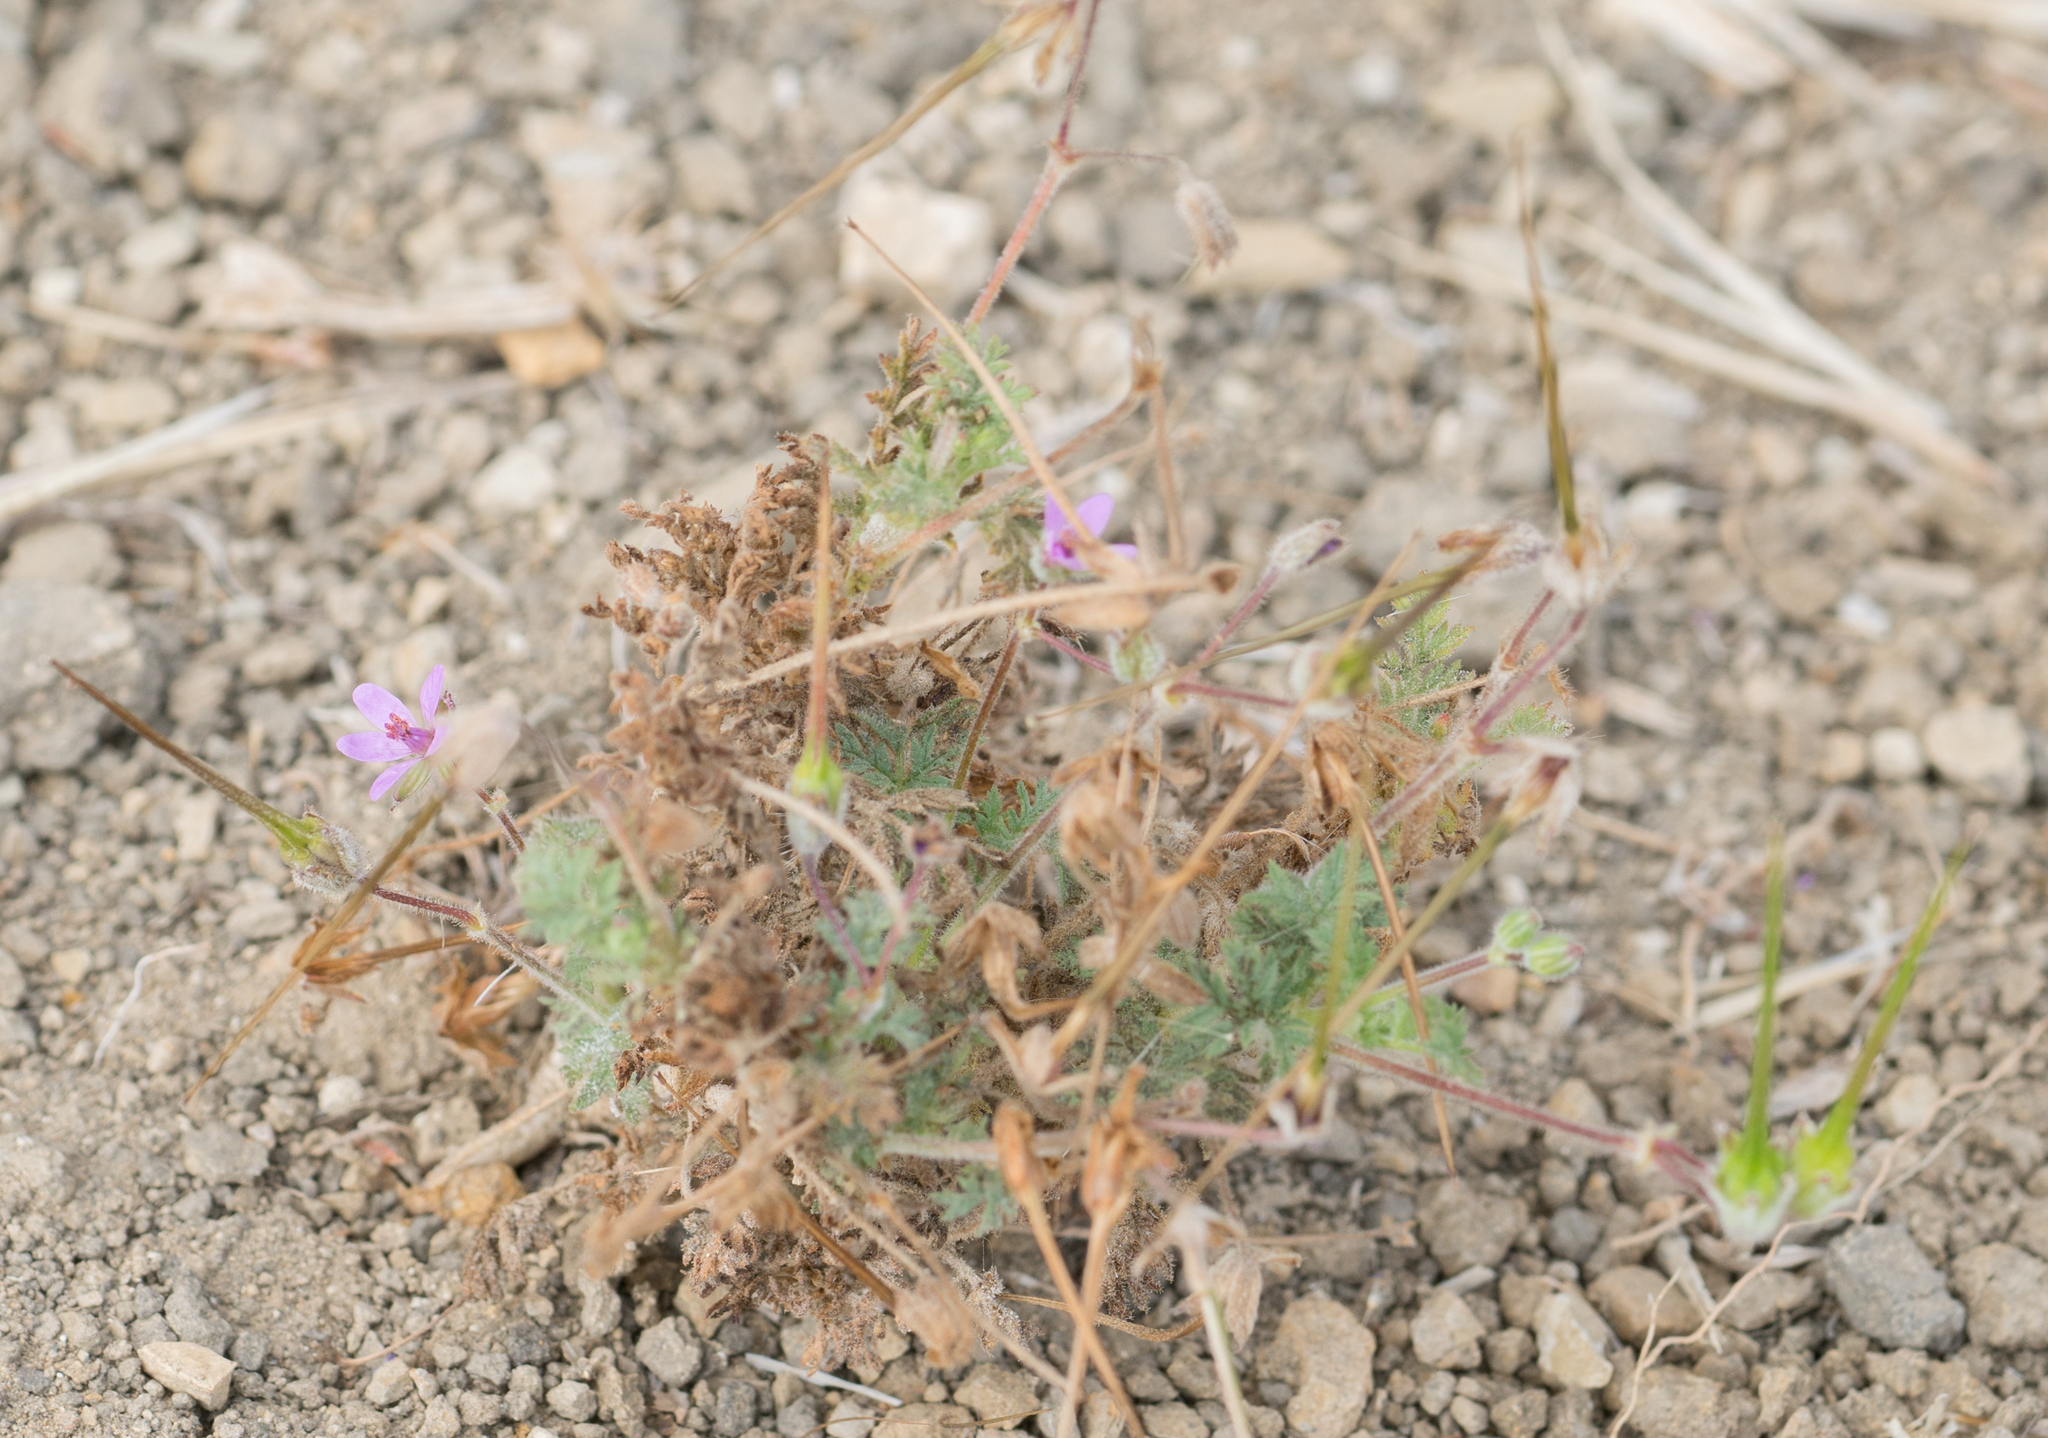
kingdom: Plantae
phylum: Tracheophyta
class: Magnoliopsida
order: Geraniales
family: Geraniaceae
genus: Erodium
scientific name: Erodium cicutarium
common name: Common stork's-bill
